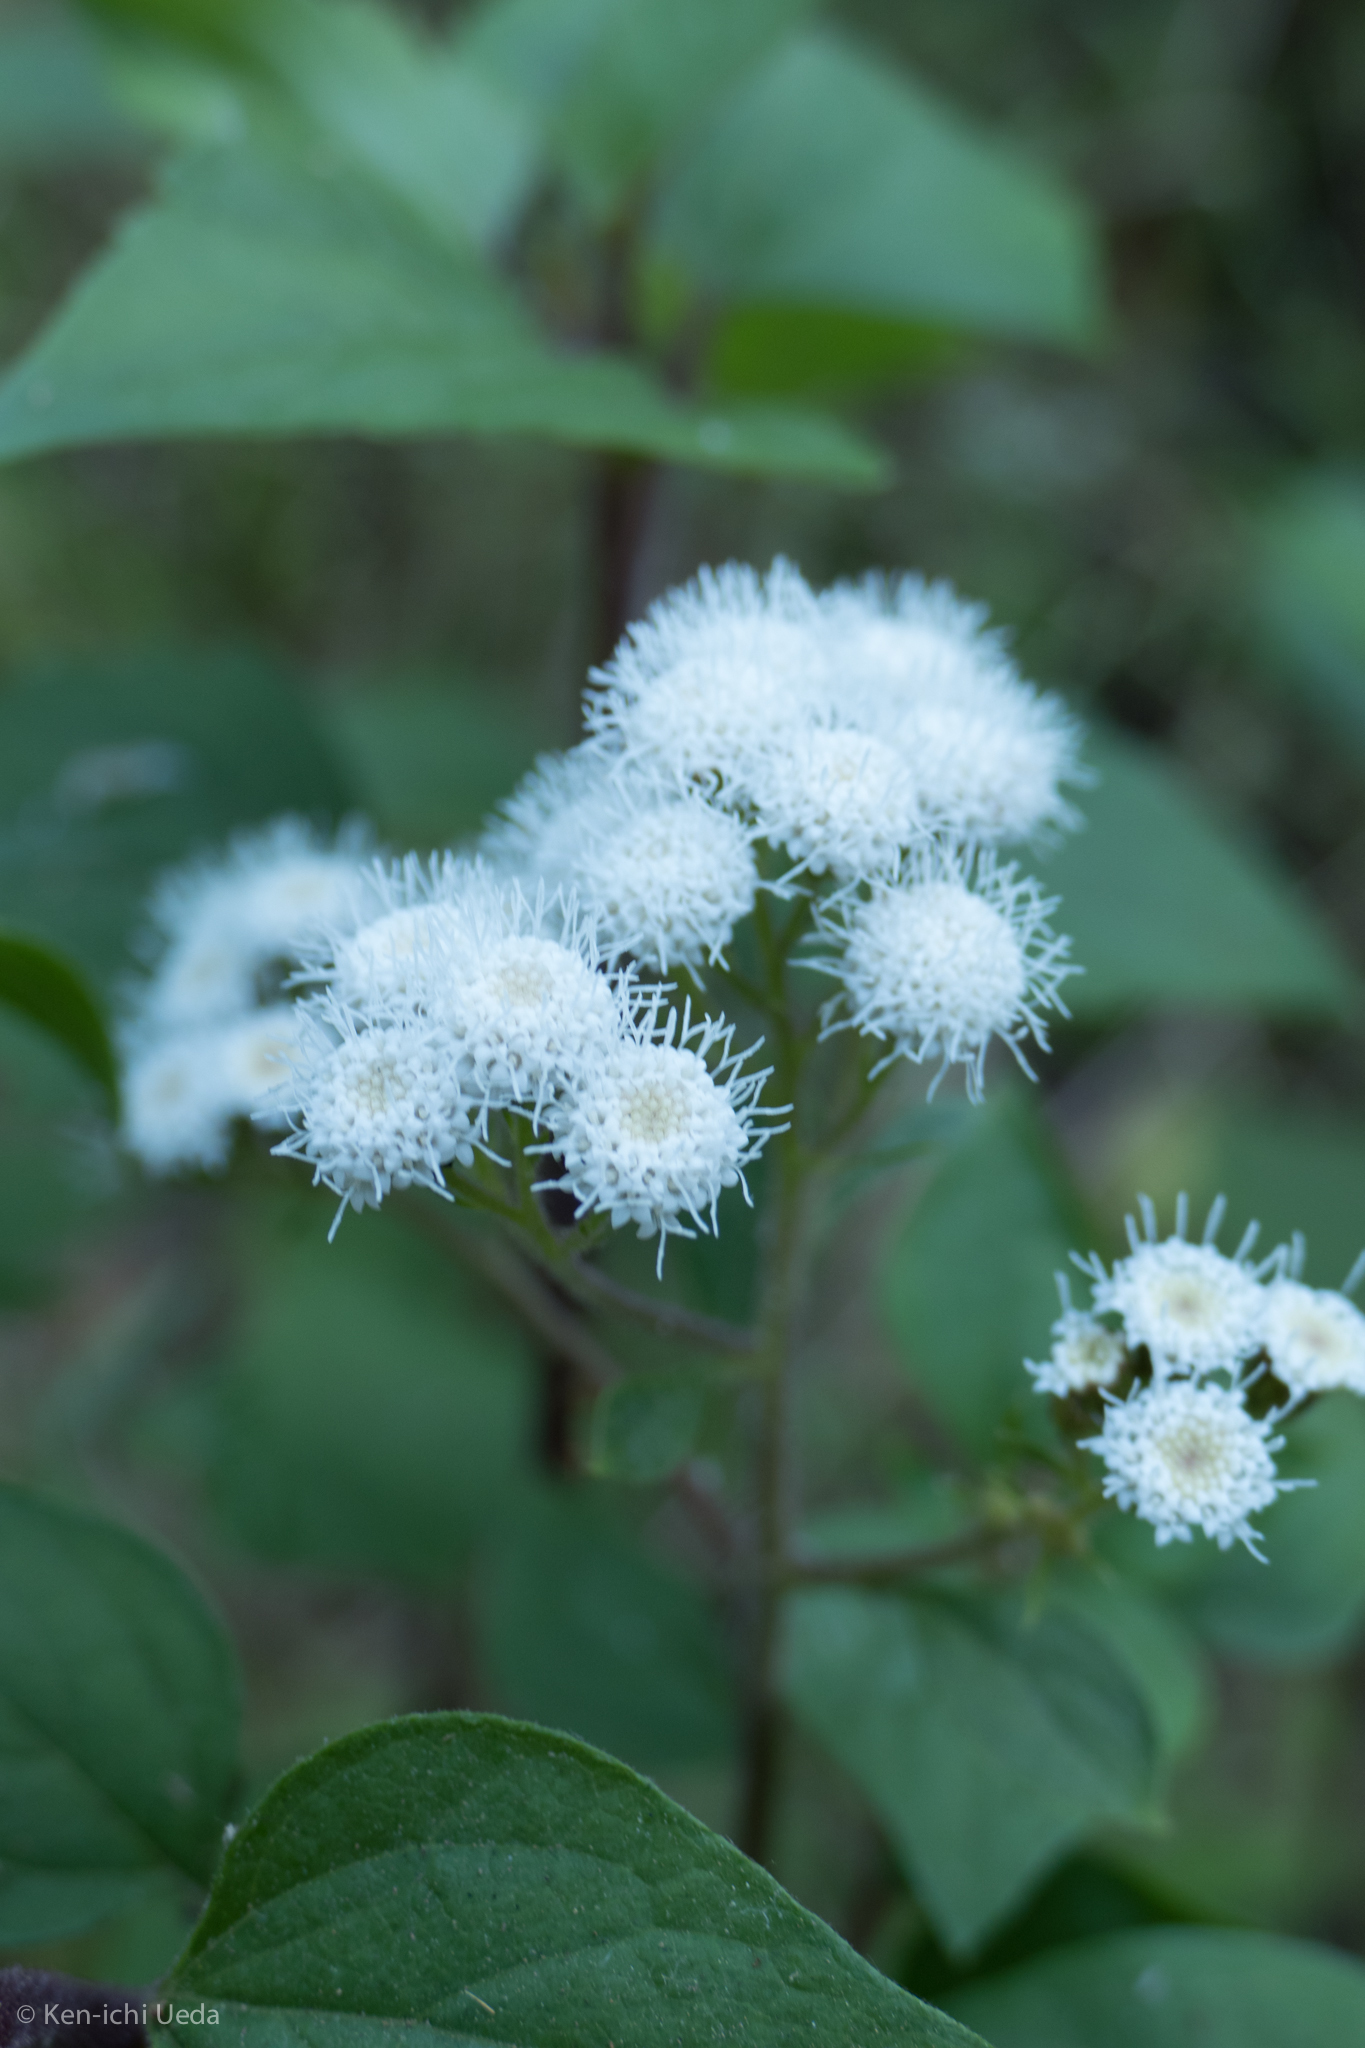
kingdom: Plantae
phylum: Tracheophyta
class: Magnoliopsida
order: Asterales
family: Asteraceae
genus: Ageratina
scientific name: Ageratina adenophora
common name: Sticky snakeroot
